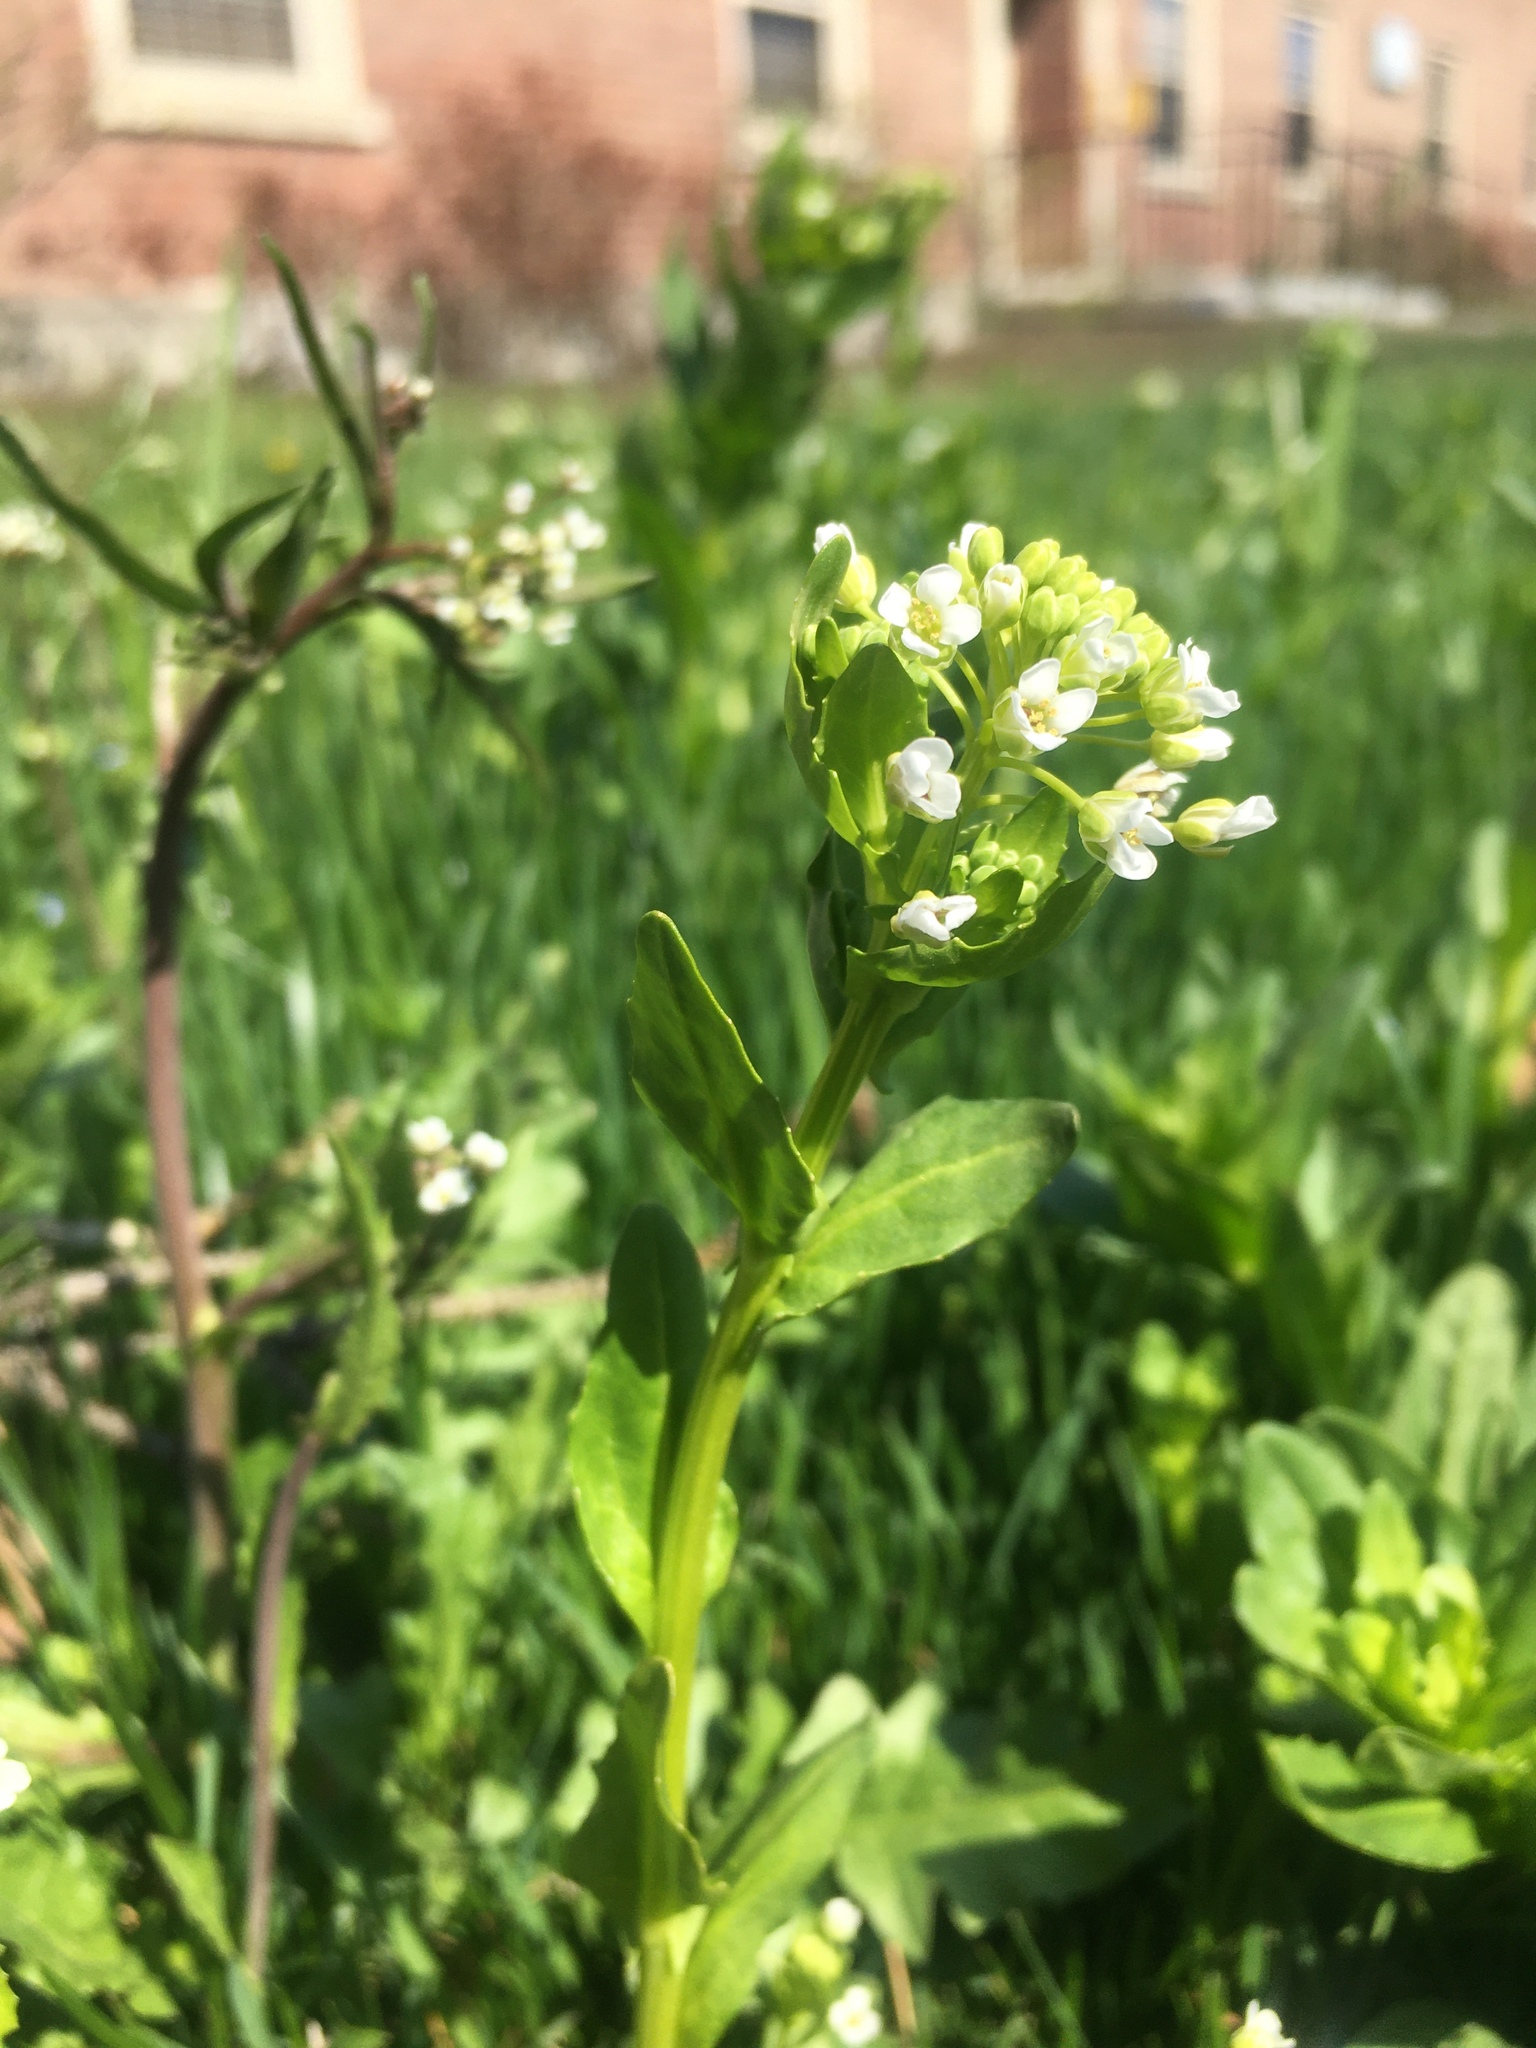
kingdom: Plantae
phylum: Tracheophyta
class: Magnoliopsida
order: Brassicales
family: Brassicaceae
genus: Thlaspi
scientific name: Thlaspi arvense
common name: Field pennycress
